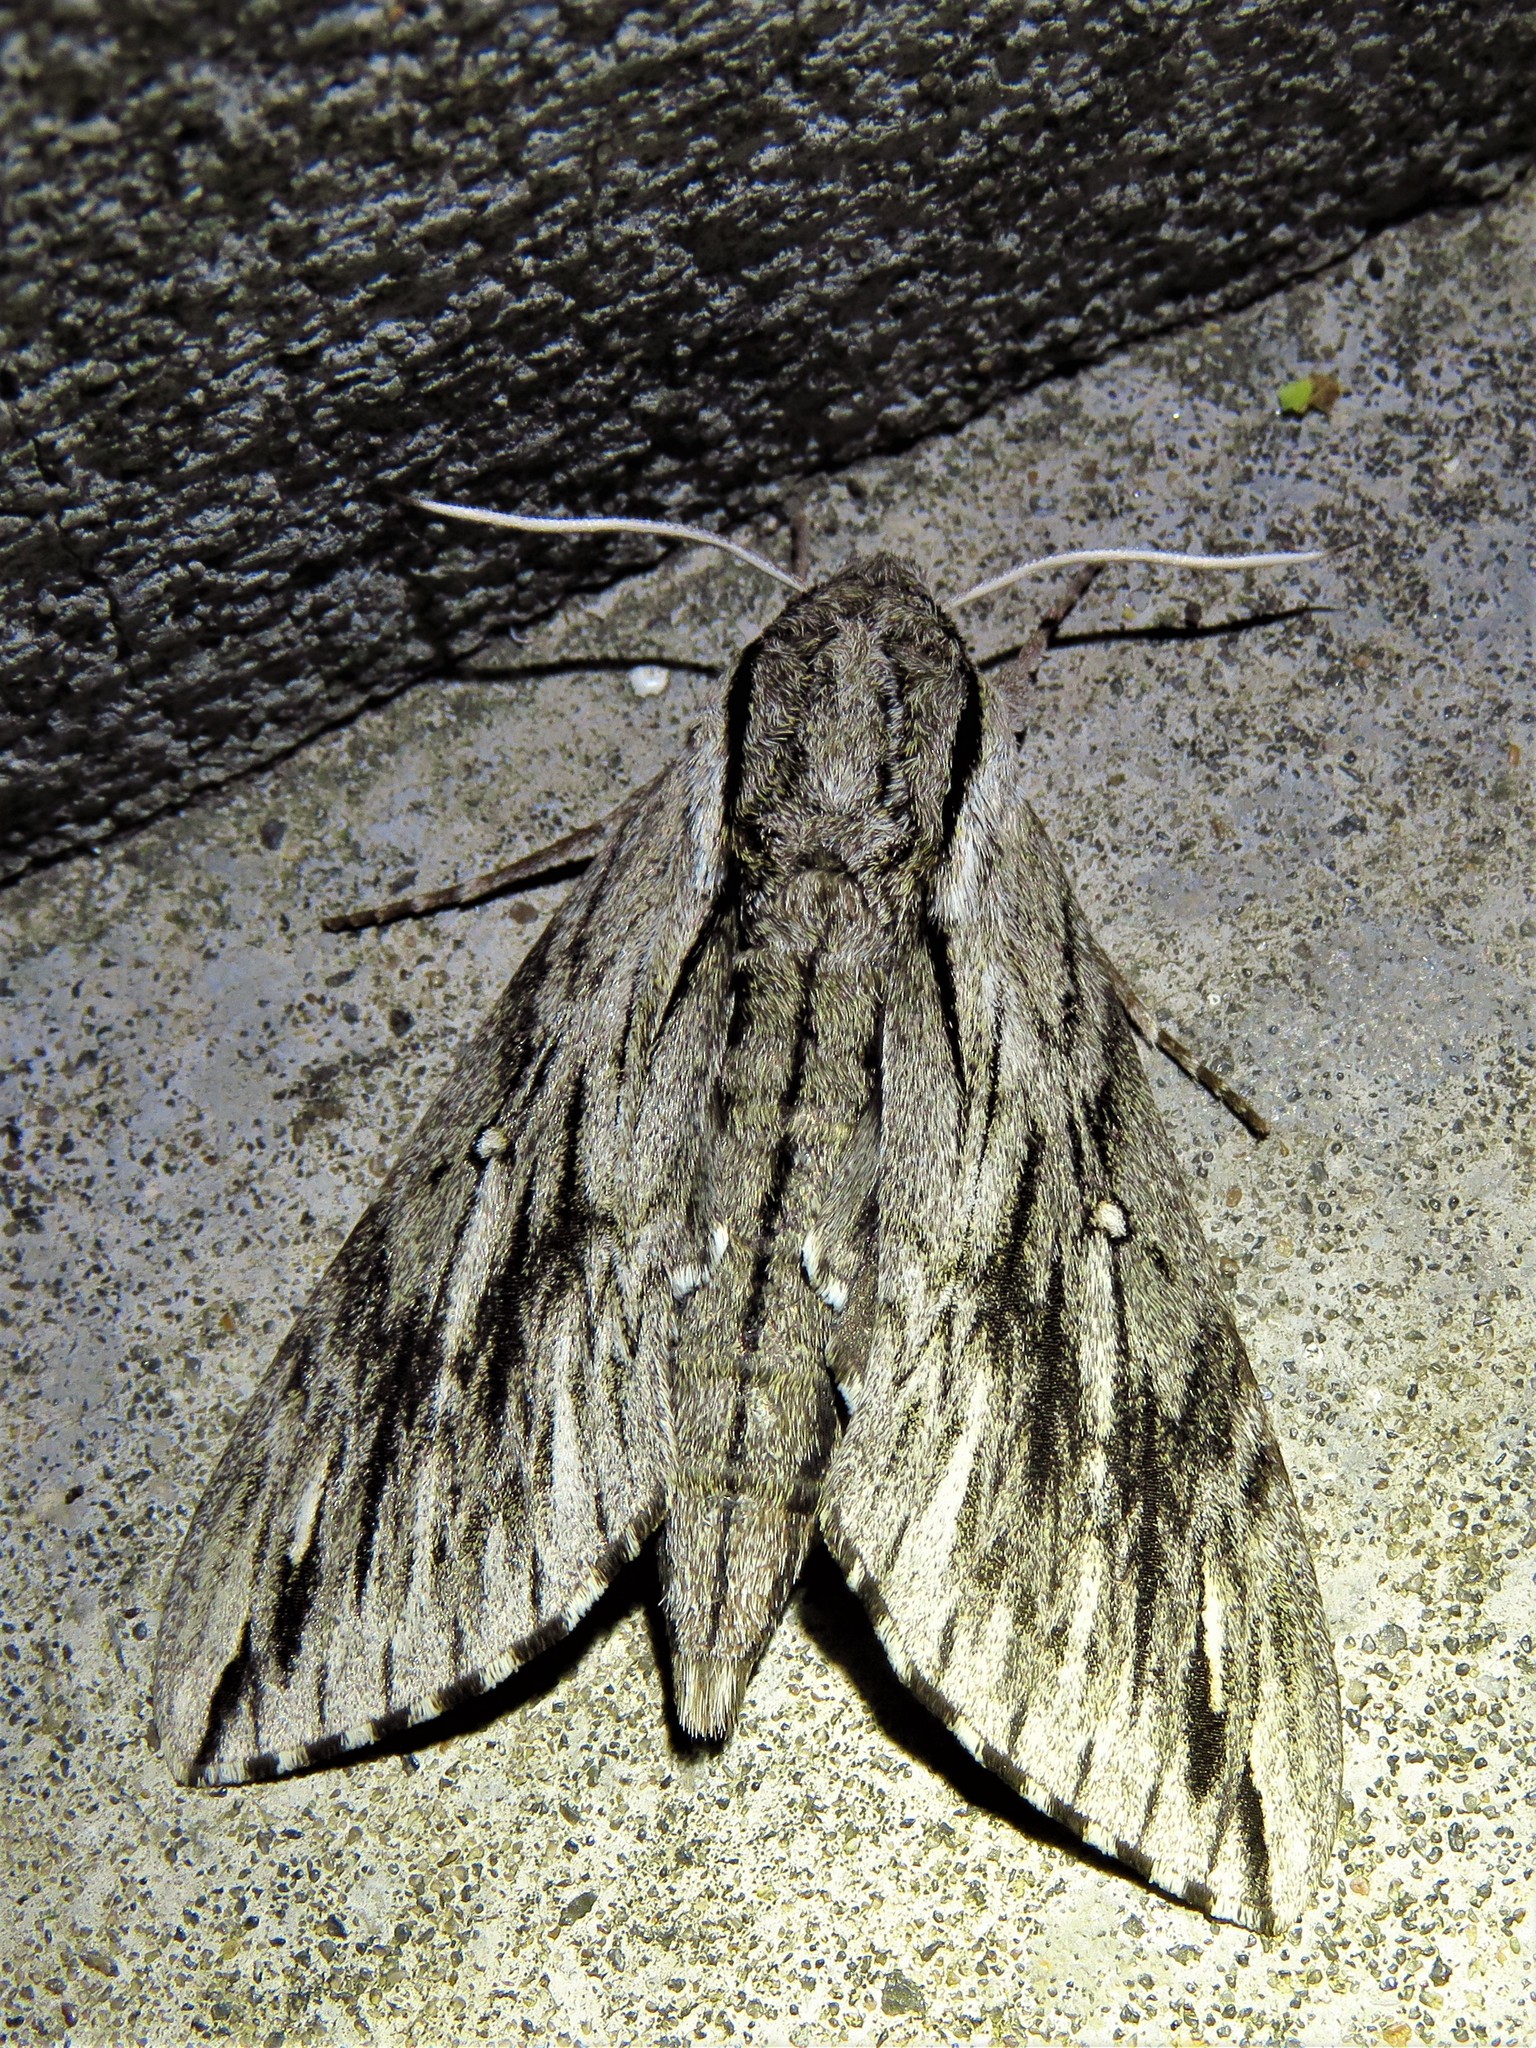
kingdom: Animalia
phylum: Arthropoda
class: Insecta
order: Lepidoptera
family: Sphingidae
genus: Paratrea
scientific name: Paratrea plebeja
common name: Plebian sphinx
